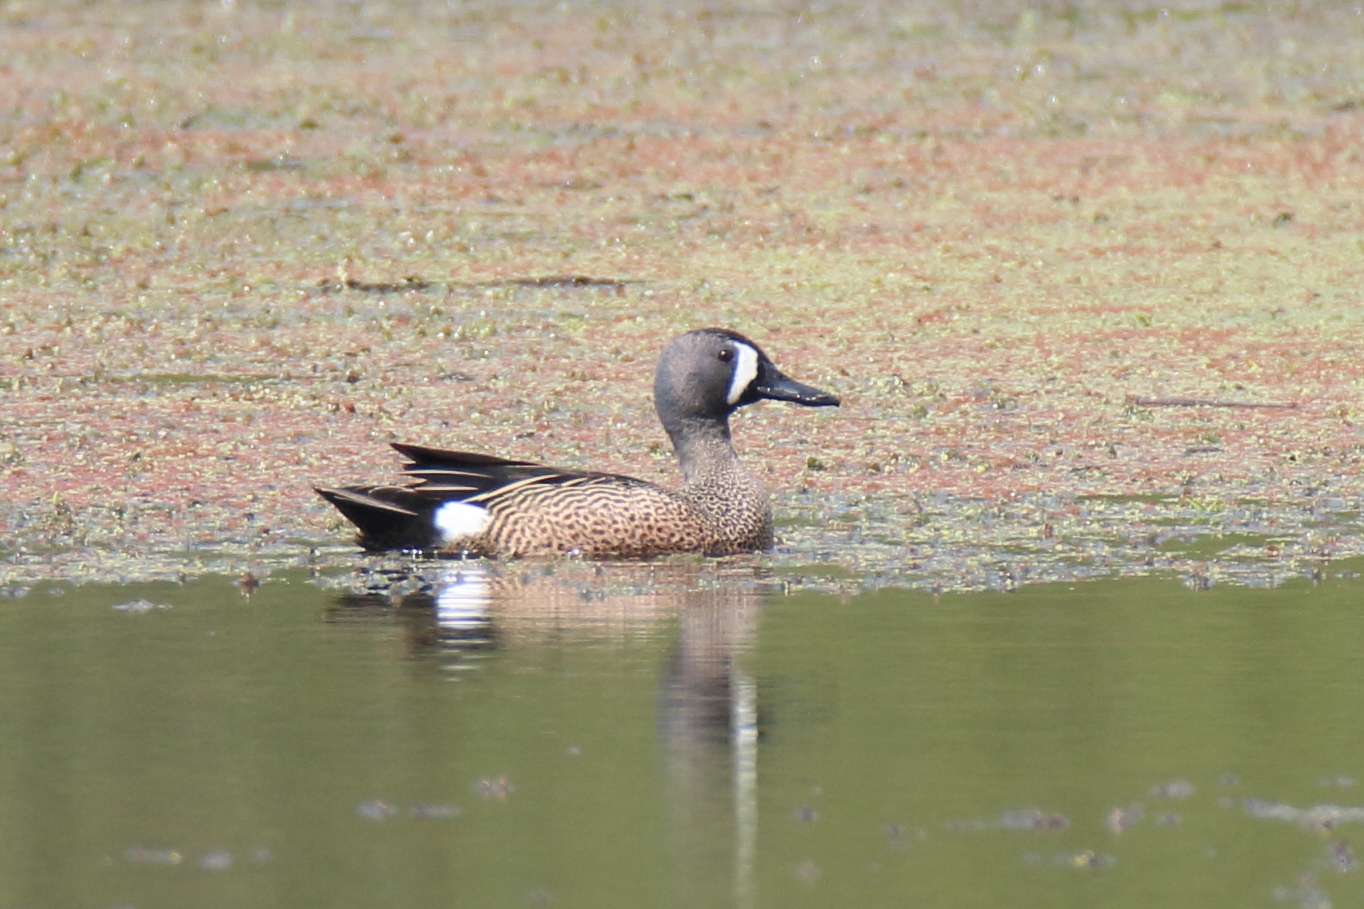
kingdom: Animalia
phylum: Chordata
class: Aves
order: Anseriformes
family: Anatidae
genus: Spatula
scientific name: Spatula discors
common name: Blue-winged teal
